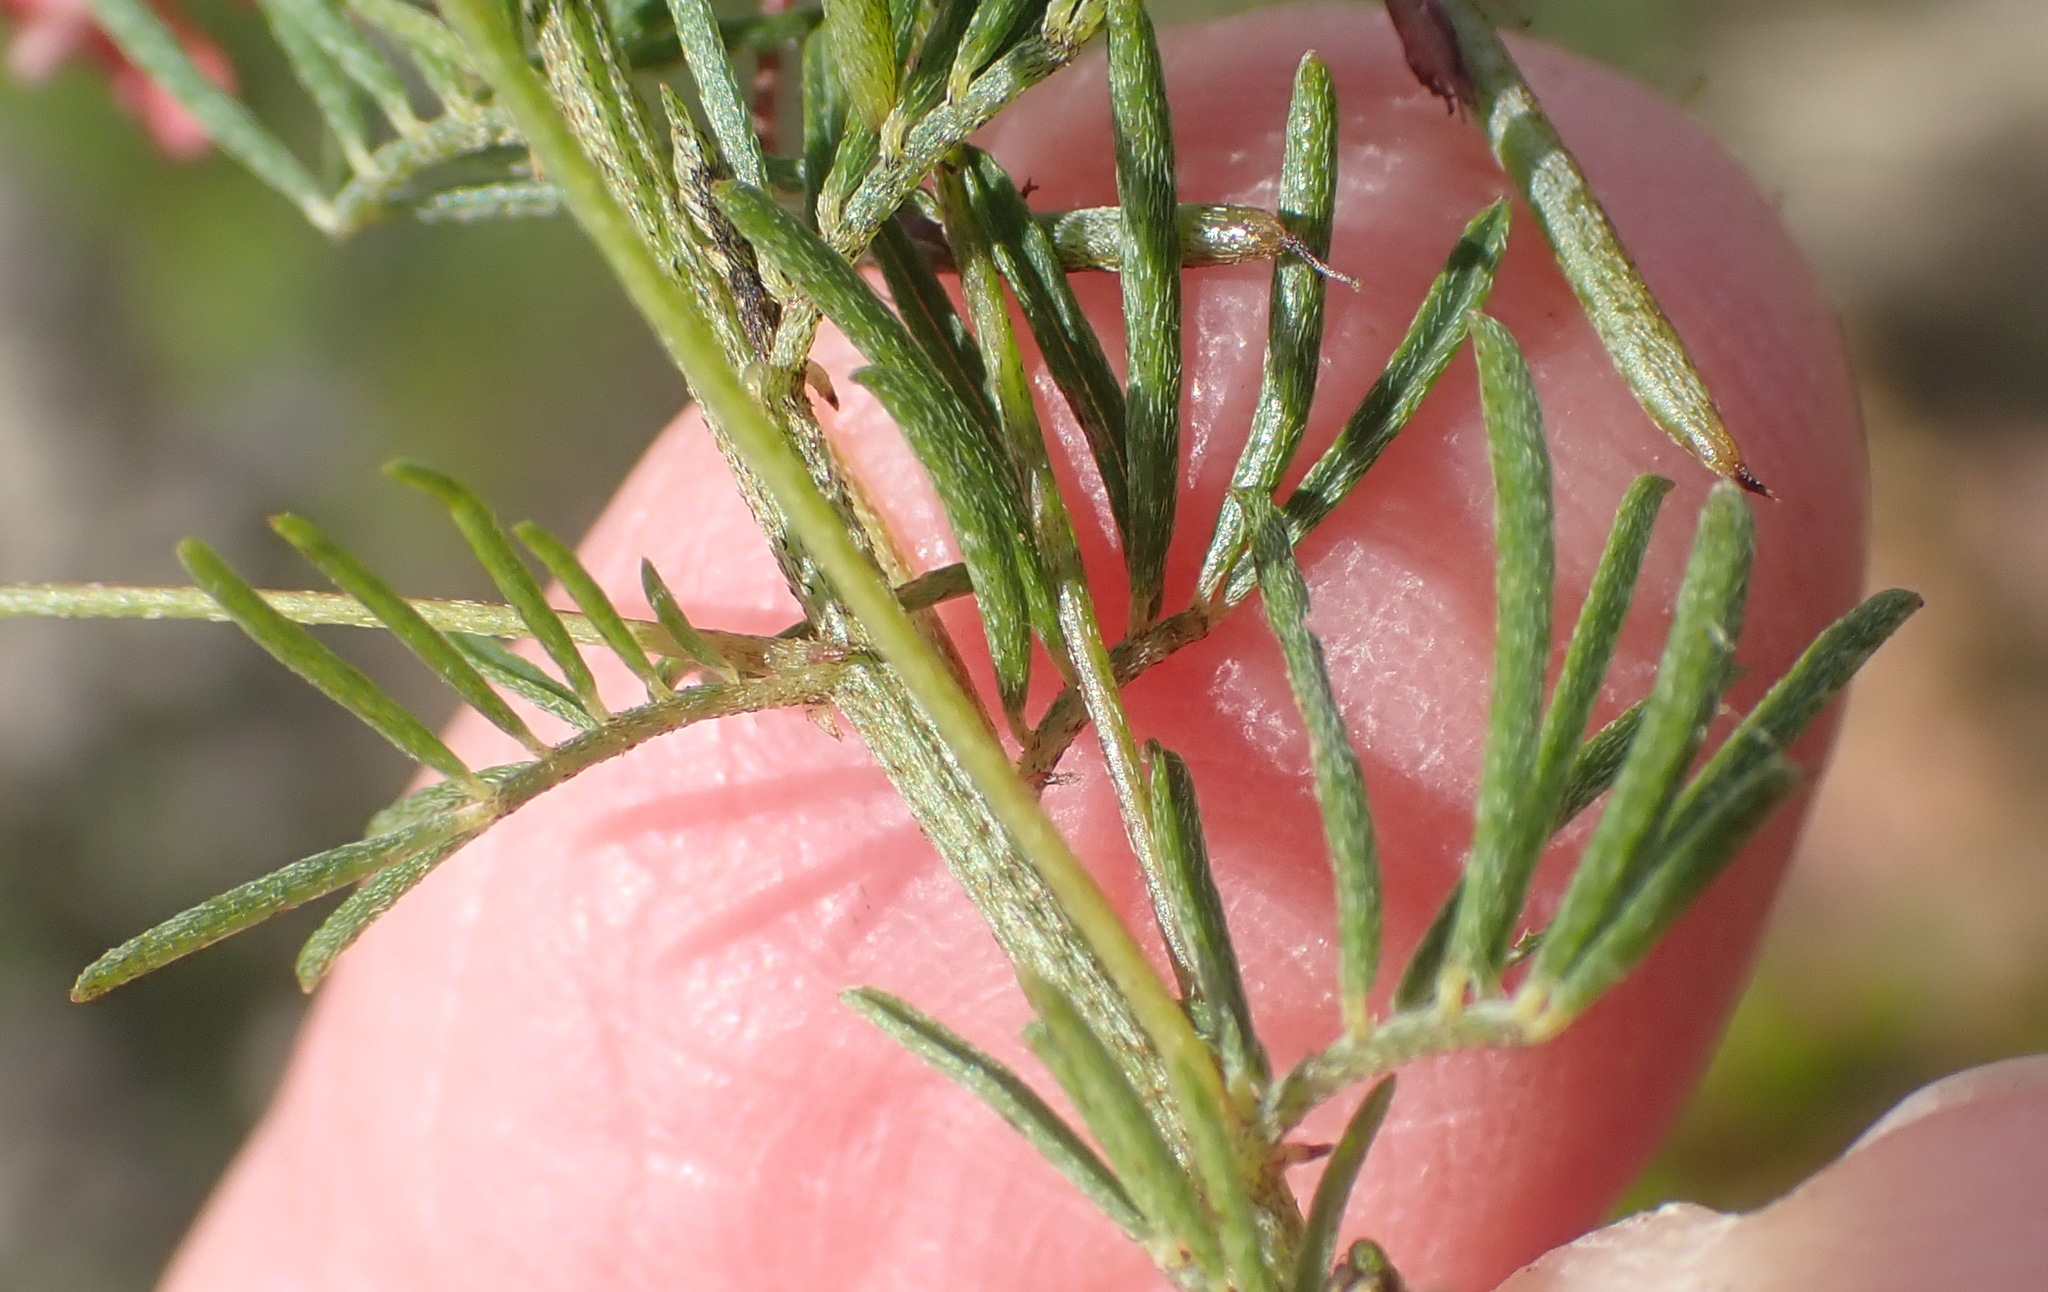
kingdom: Plantae
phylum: Tracheophyta
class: Magnoliopsida
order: Fabales
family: Fabaceae
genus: Indigofera
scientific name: Indigofera verrucosa
